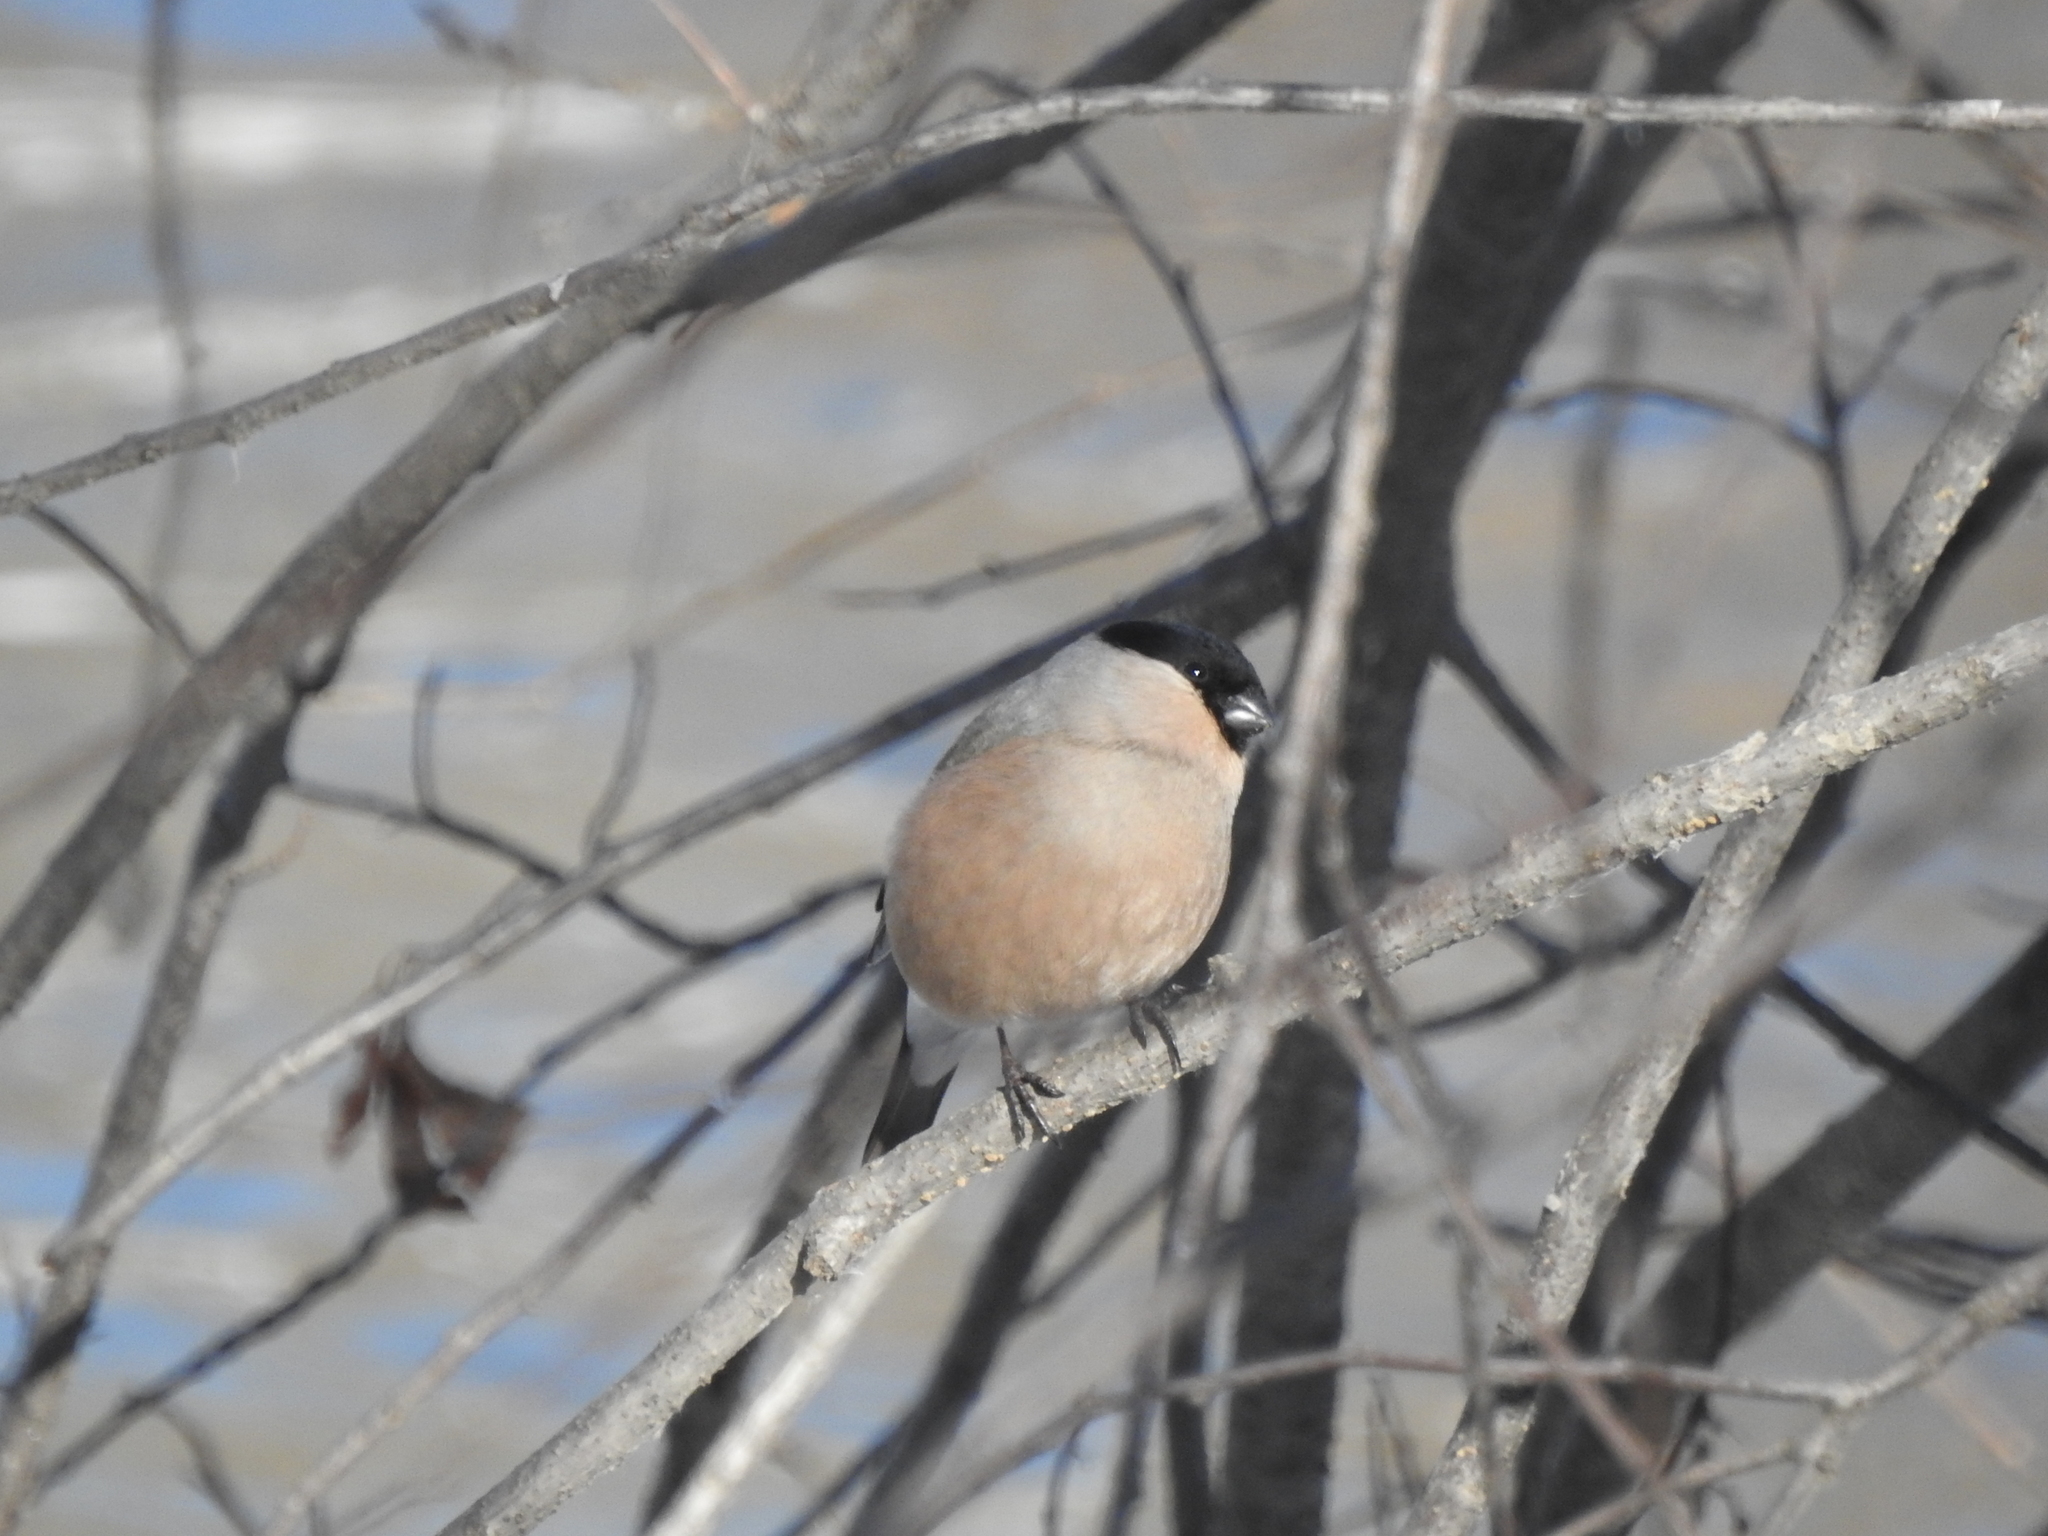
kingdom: Animalia
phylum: Chordata
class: Aves
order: Passeriformes
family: Fringillidae
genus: Pyrrhula
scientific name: Pyrrhula pyrrhula
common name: Eurasian bullfinch
